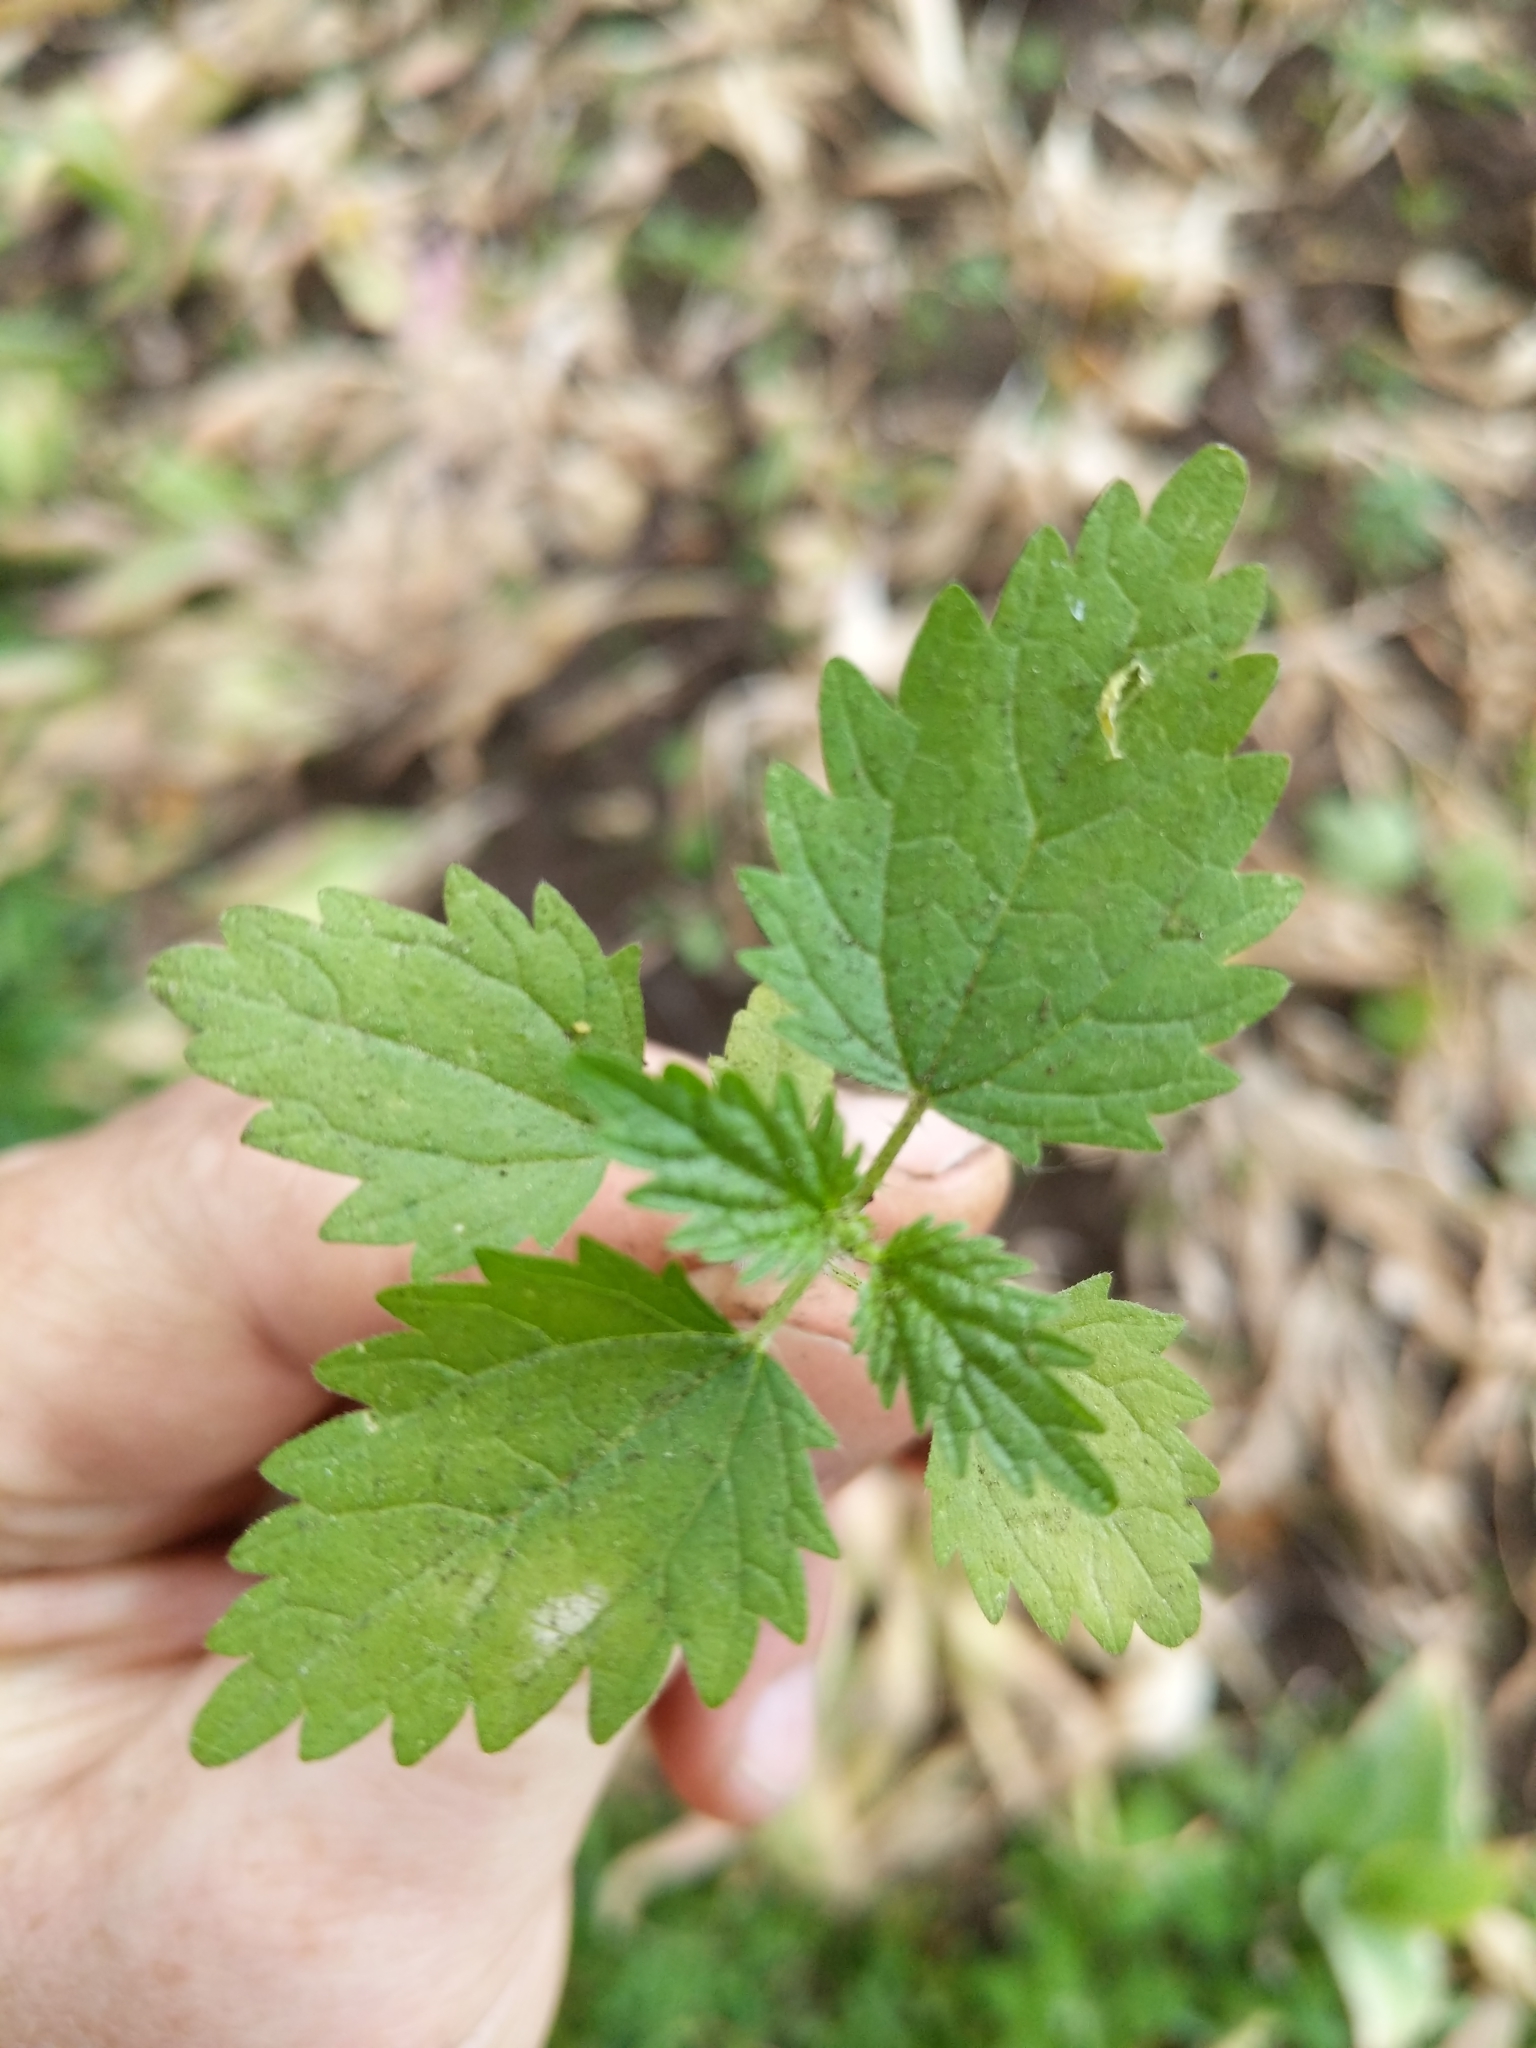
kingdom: Plantae
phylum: Tracheophyta
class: Magnoliopsida
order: Rosales
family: Urticaceae
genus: Urtica
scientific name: Urtica dioica
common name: Common nettle
